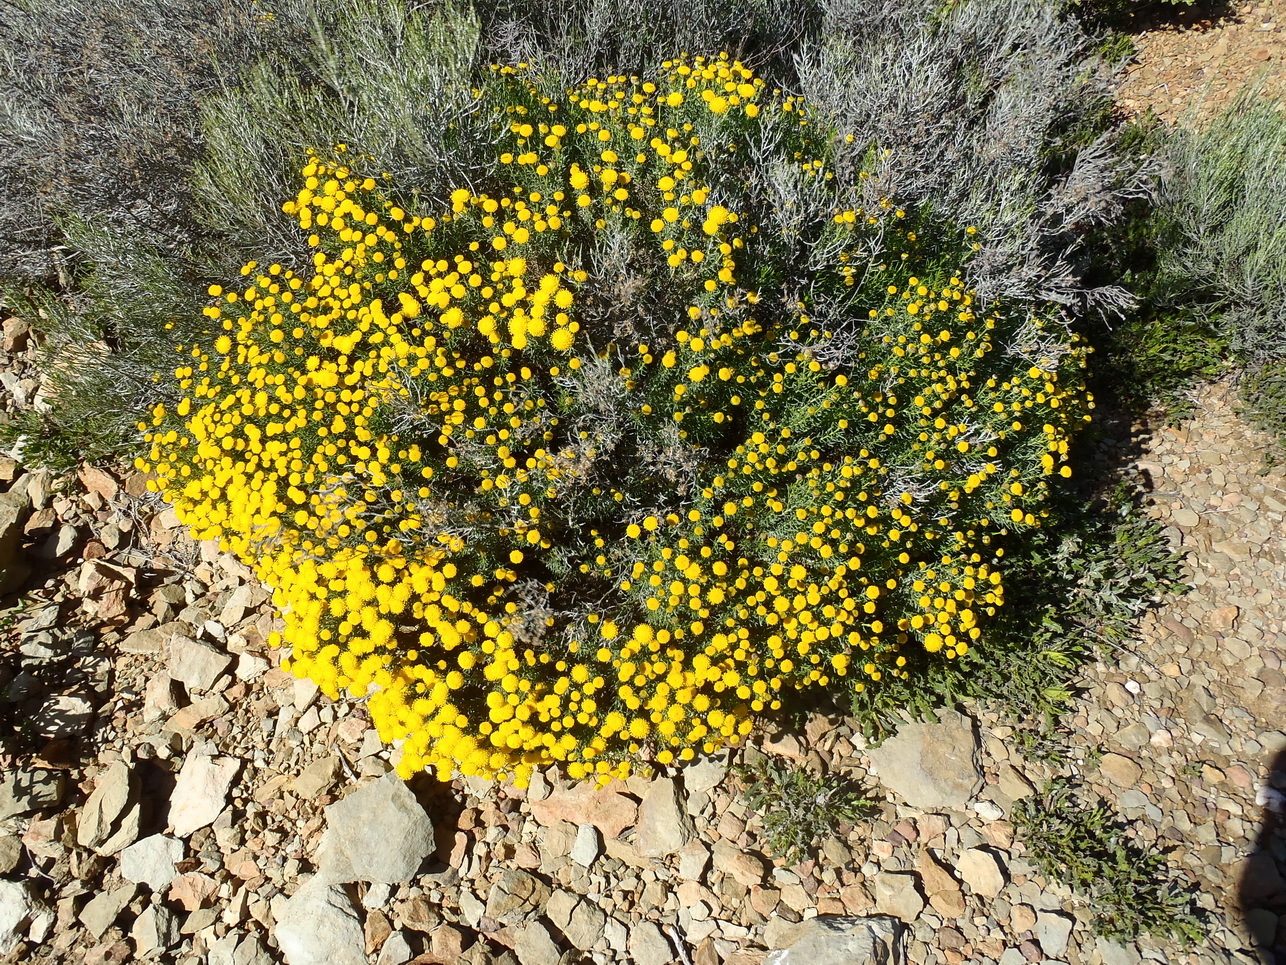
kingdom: Plantae
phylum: Tracheophyta
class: Magnoliopsida
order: Asterales
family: Asteraceae
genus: Chrysocoma
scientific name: Chrysocoma ciliata
